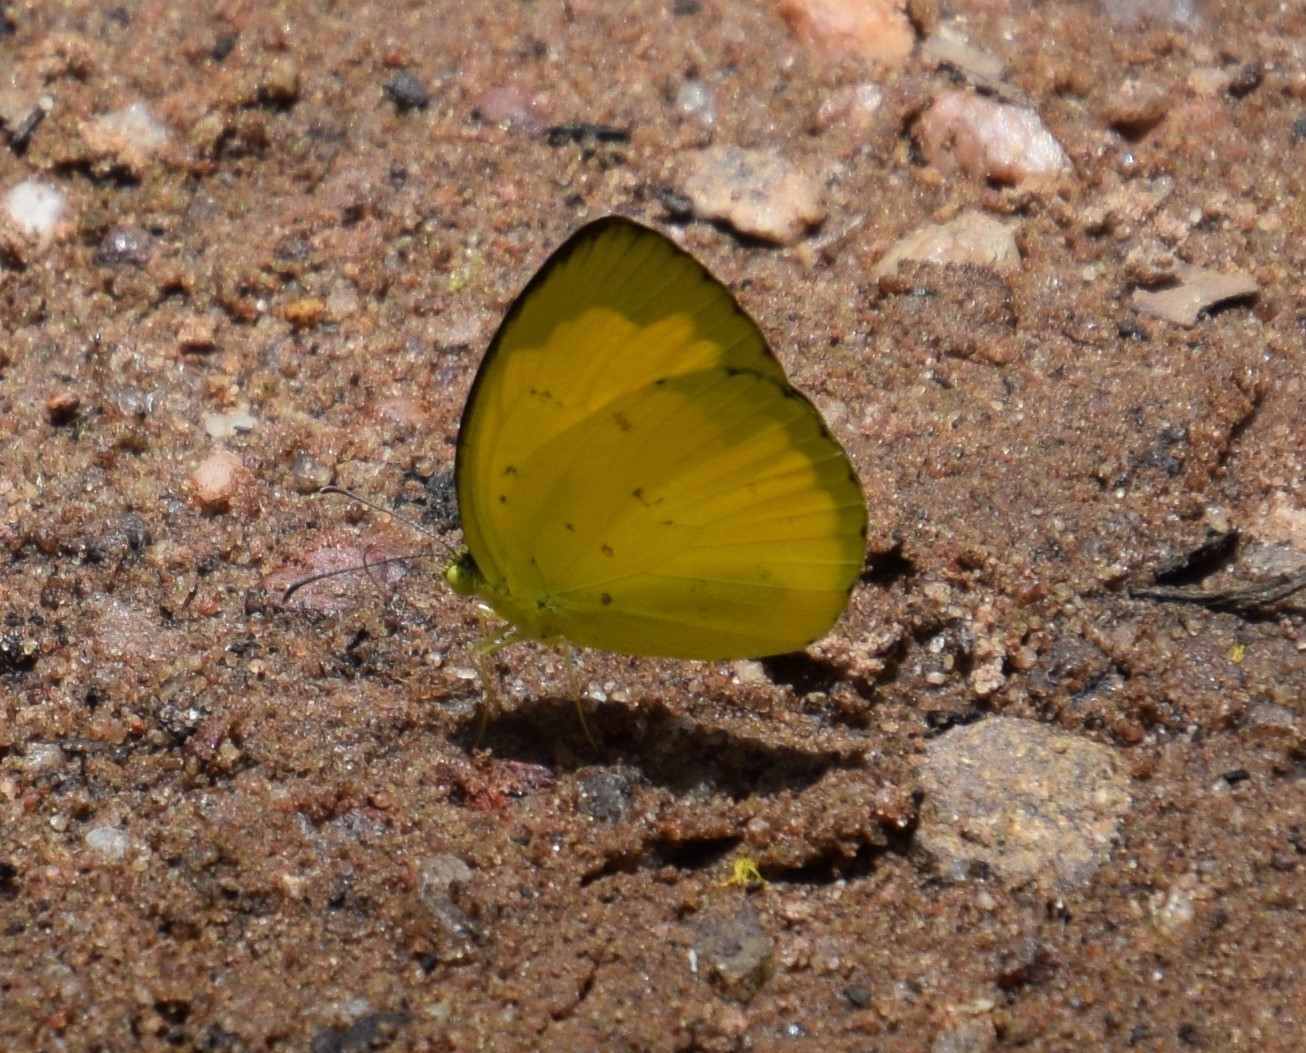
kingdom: Animalia
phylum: Arthropoda
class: Insecta
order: Lepidoptera
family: Pieridae
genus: Eurema
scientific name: Eurema hecabe
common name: Pale grass yellow
